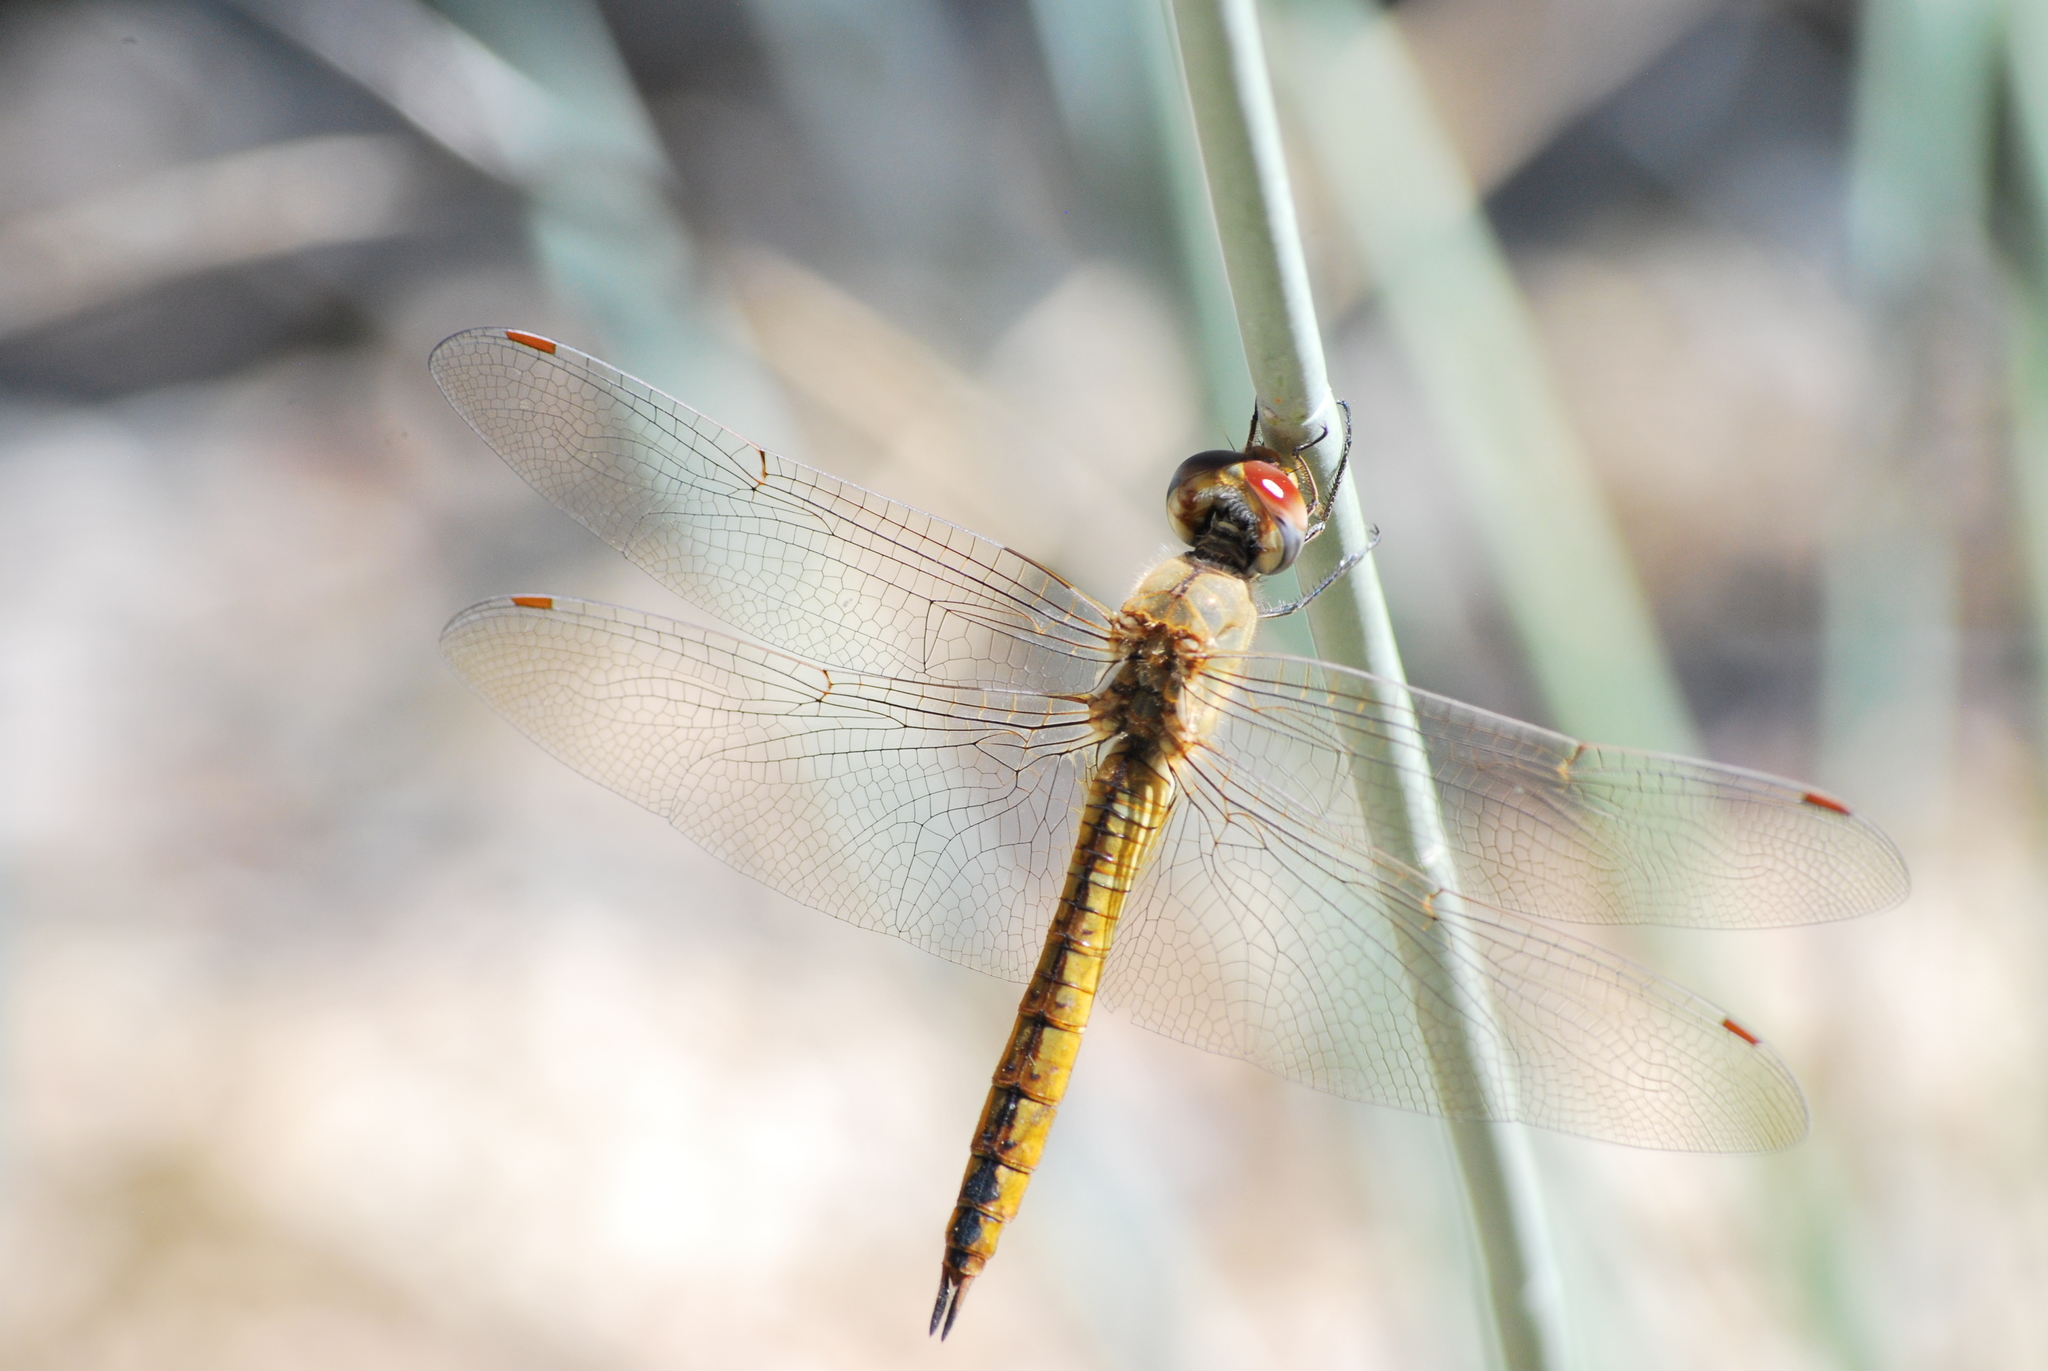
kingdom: Animalia
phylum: Arthropoda
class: Insecta
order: Odonata
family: Libellulidae
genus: Pantala
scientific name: Pantala flavescens
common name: Wandering glider
